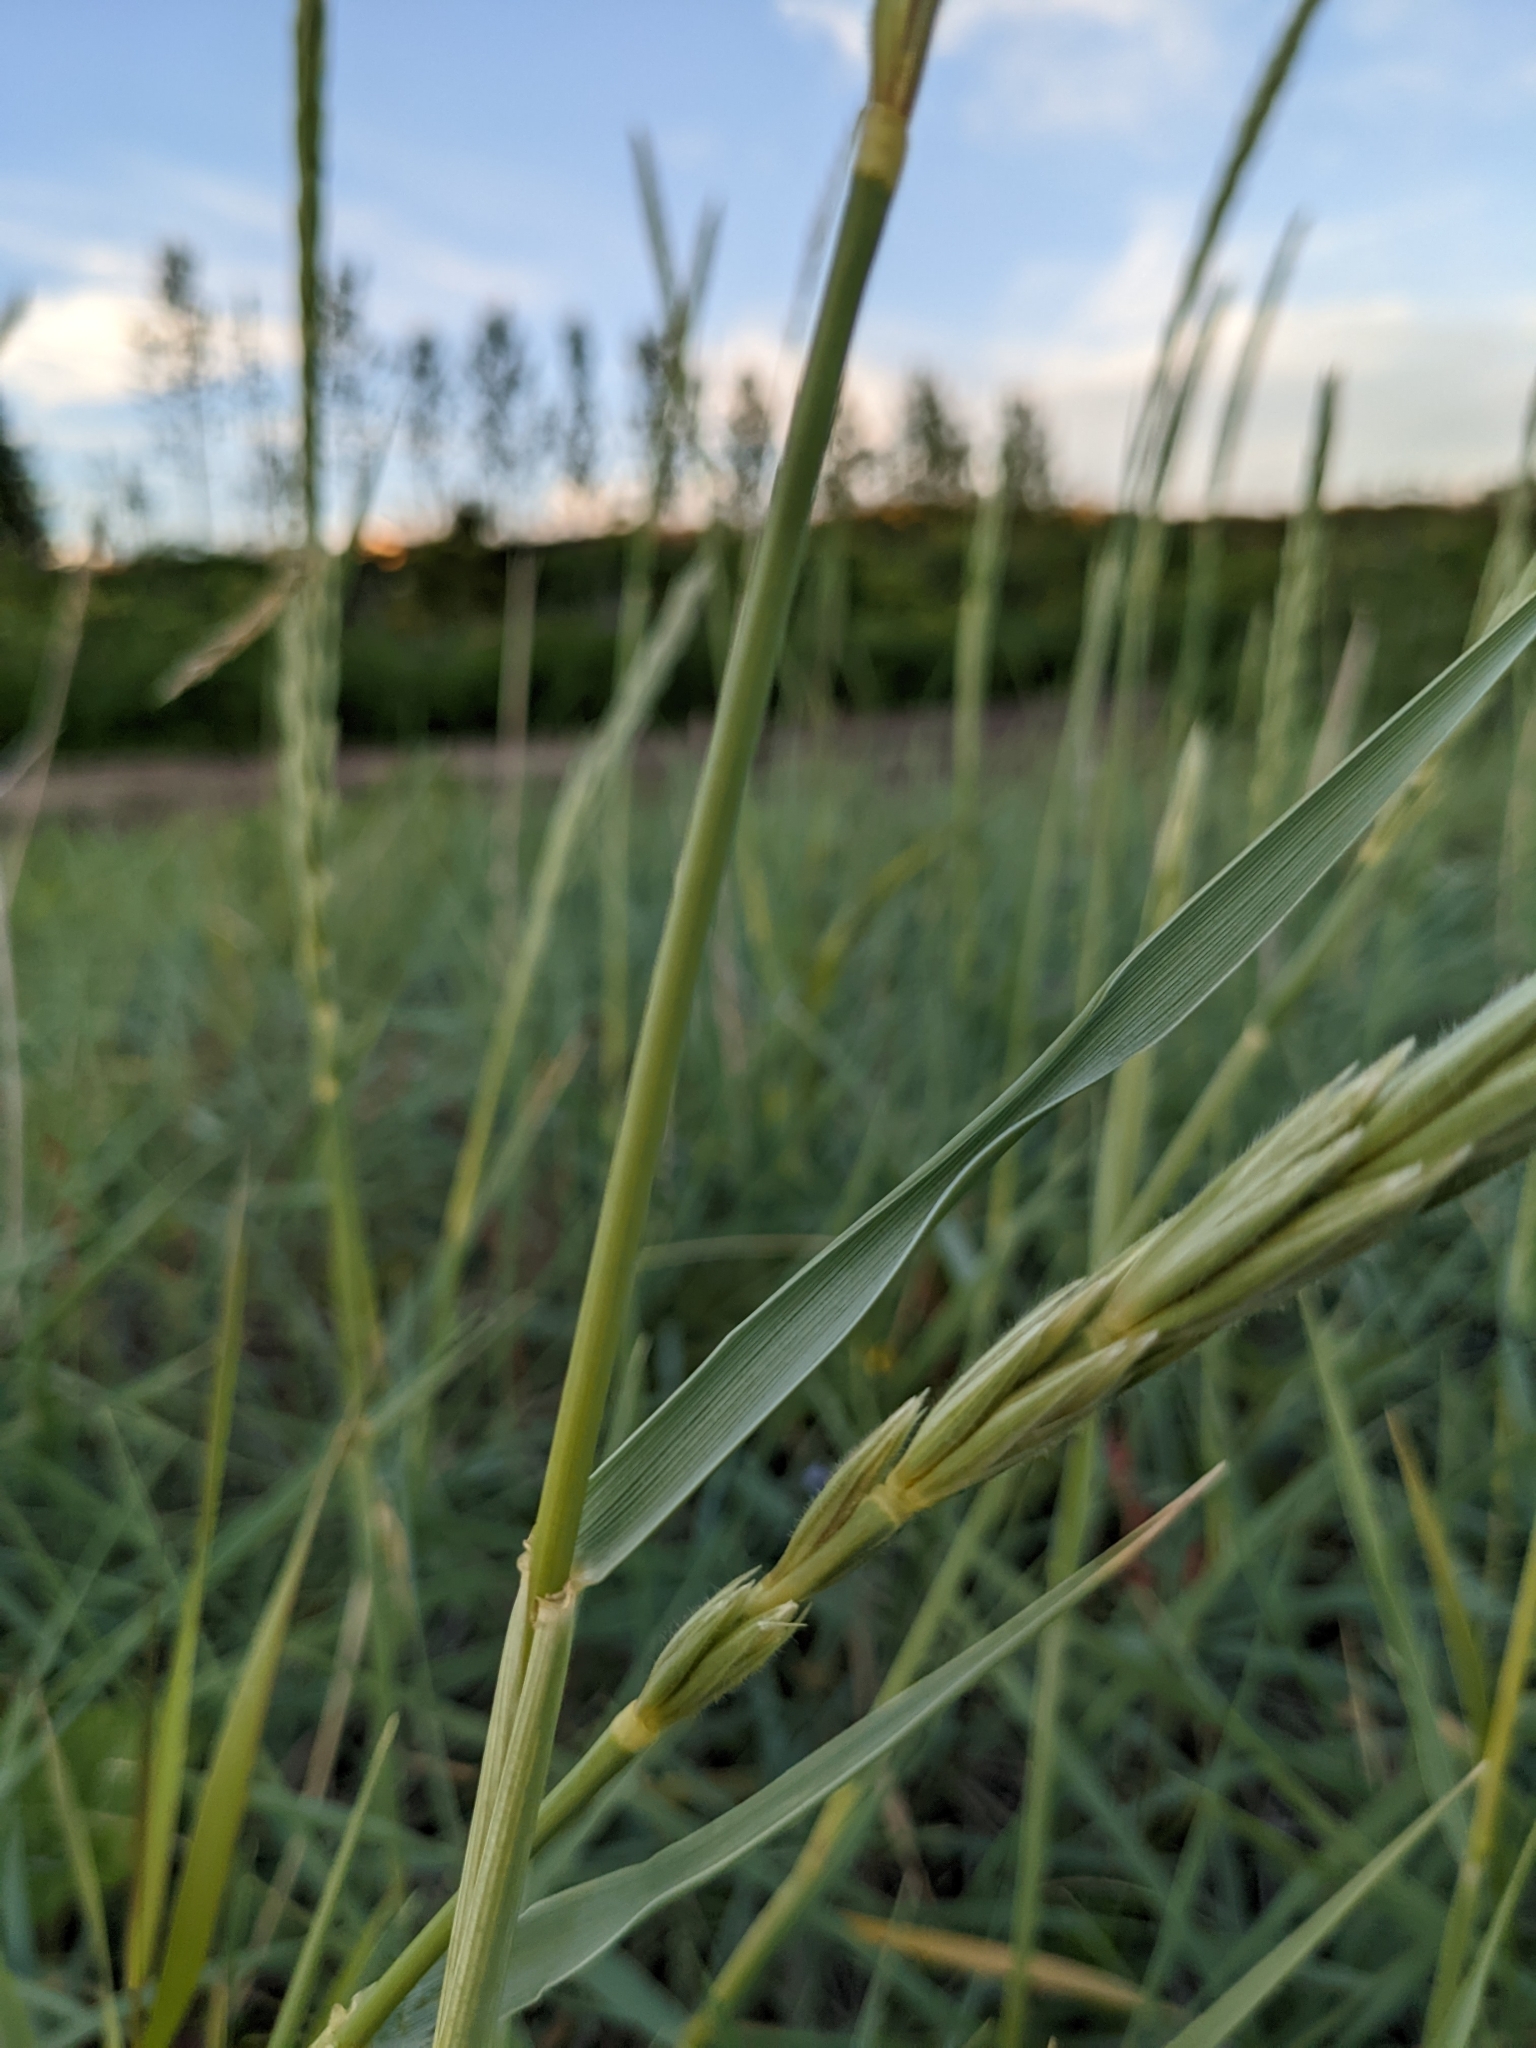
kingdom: Plantae
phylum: Tracheophyta
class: Liliopsida
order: Poales
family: Poaceae
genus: Leymus
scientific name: Leymus arenarius
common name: Lyme-grass
